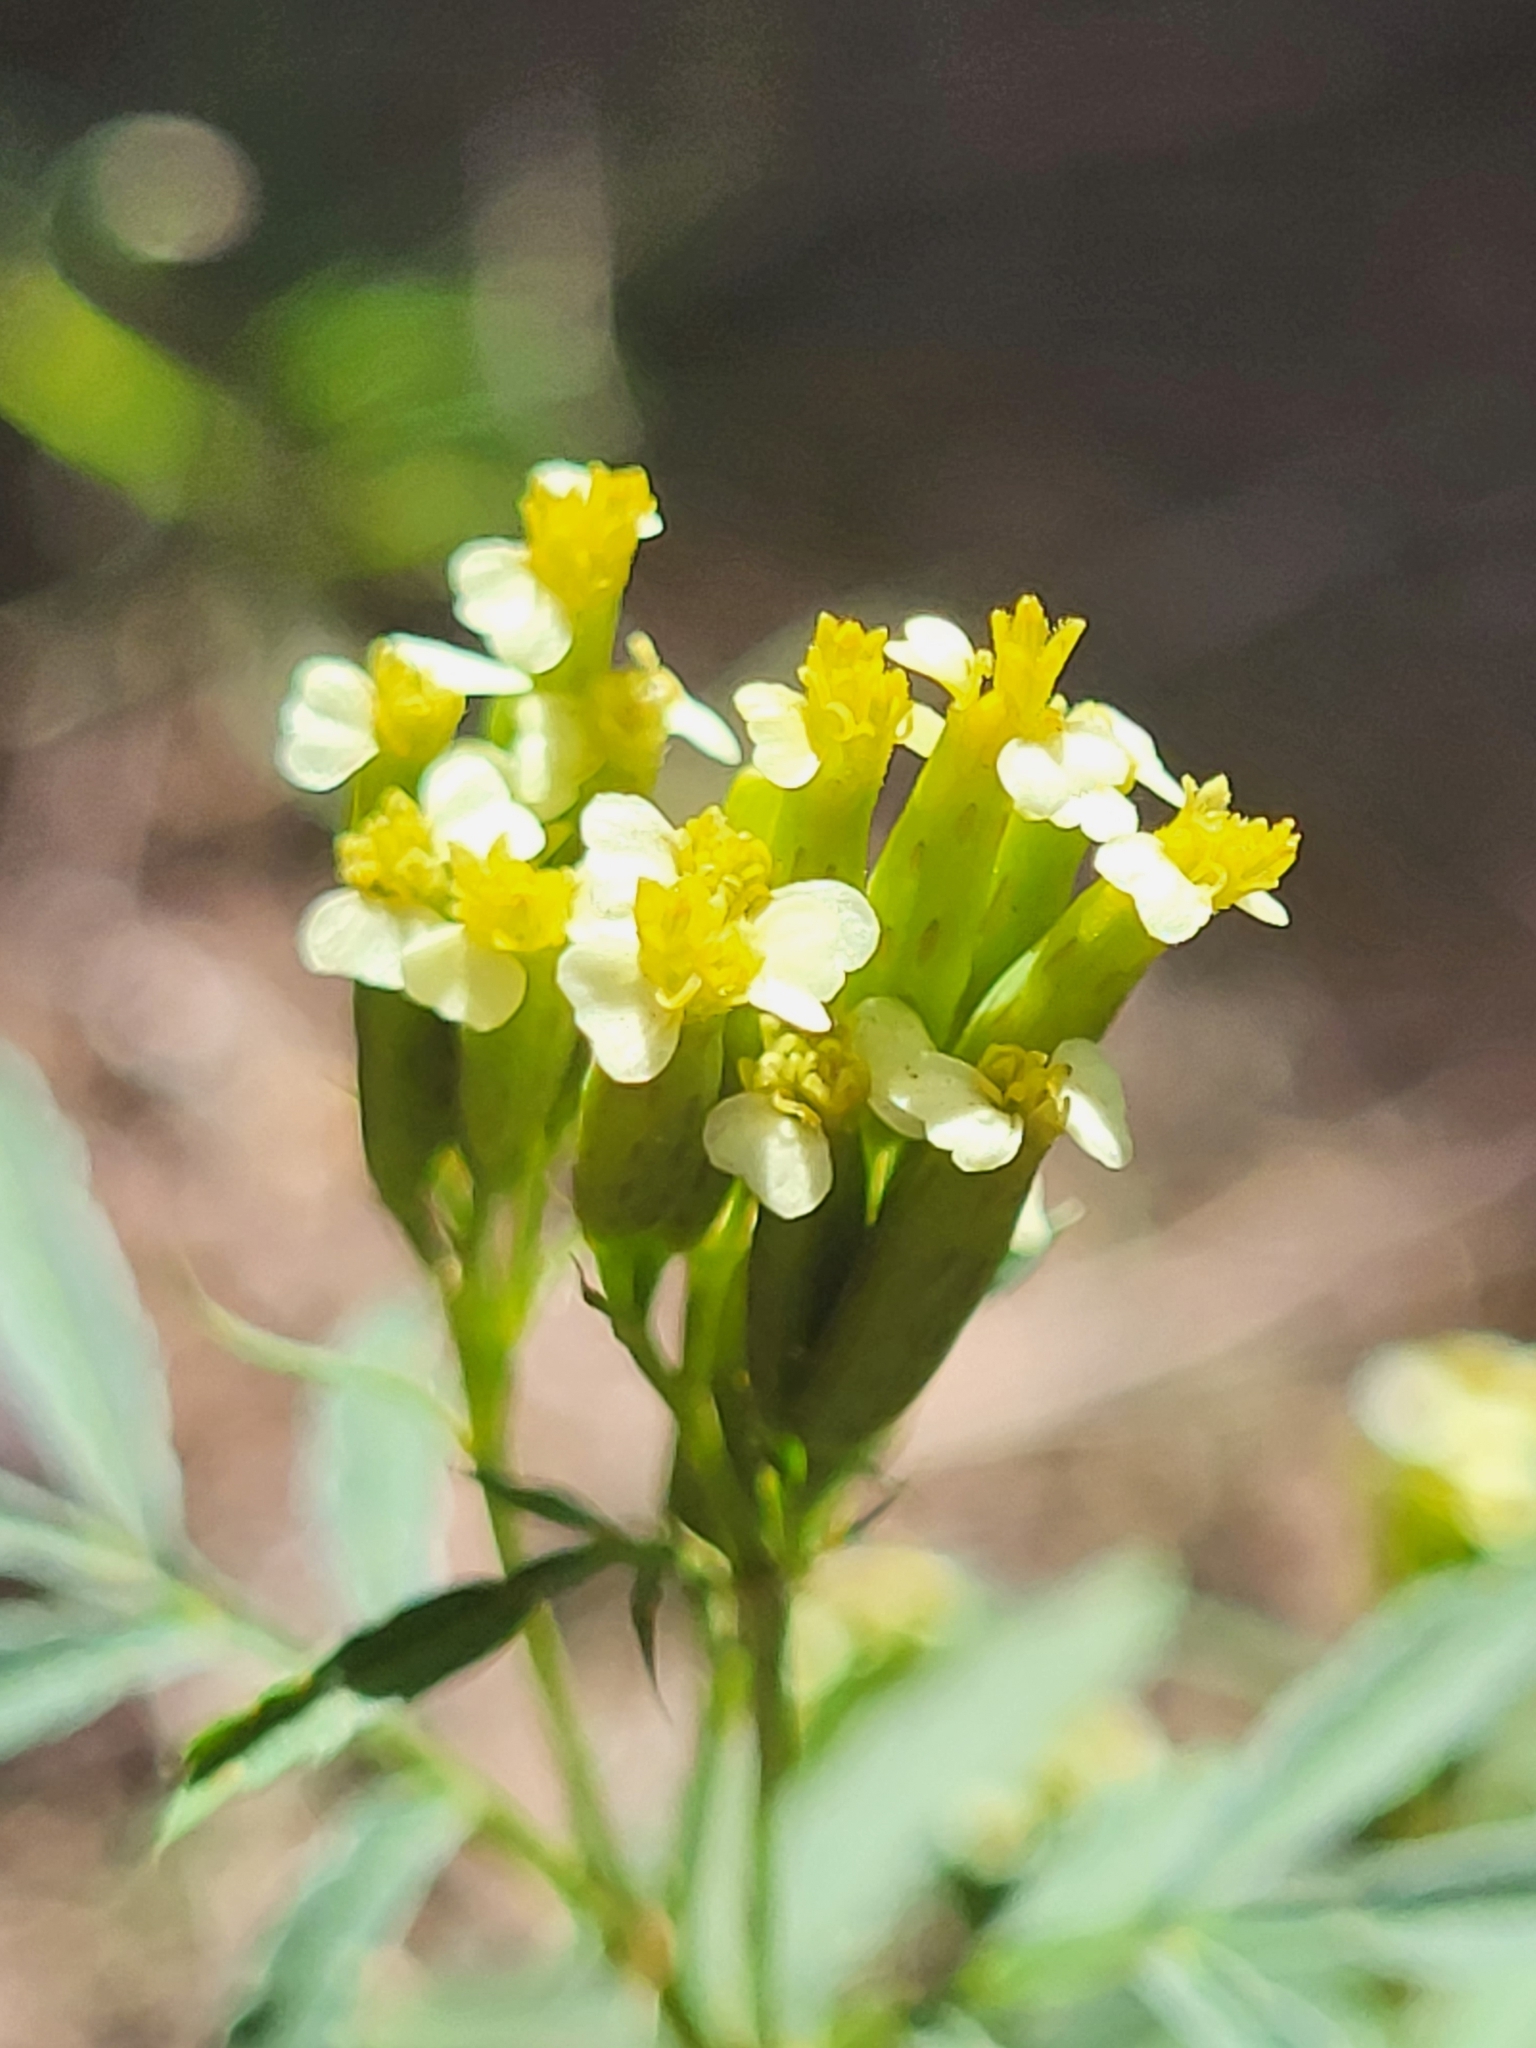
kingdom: Plantae
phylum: Tracheophyta
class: Magnoliopsida
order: Asterales
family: Asteraceae
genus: Tagetes
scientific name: Tagetes minuta
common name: Muster john henry
